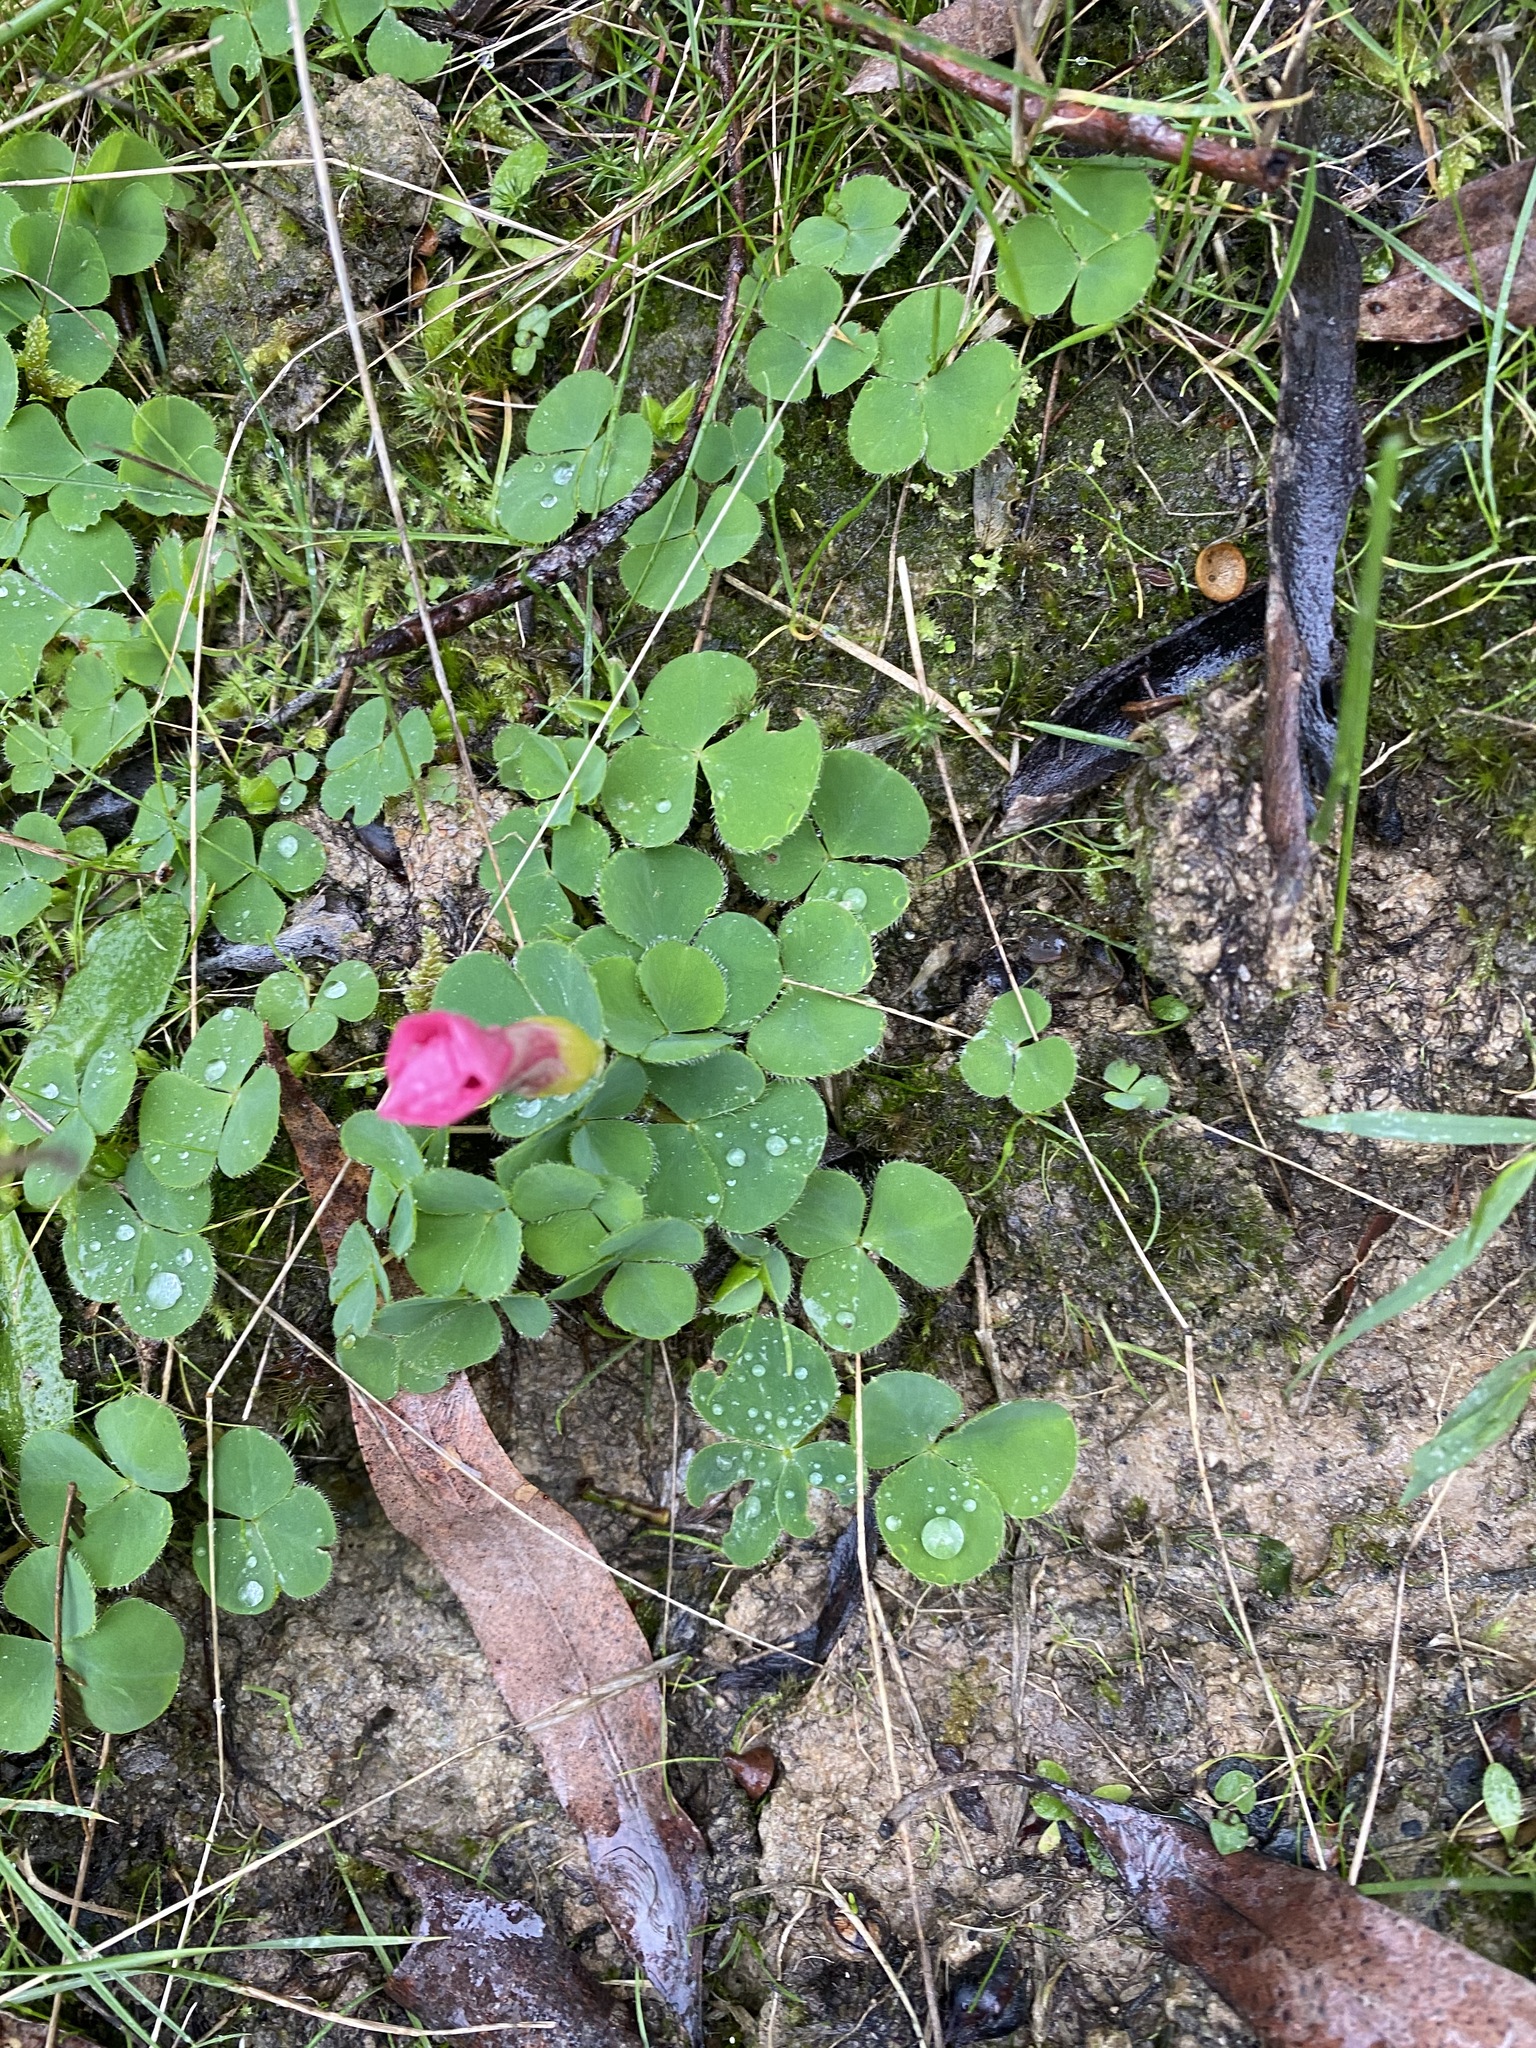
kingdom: Plantae
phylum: Tracheophyta
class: Magnoliopsida
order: Oxalidales
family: Oxalidaceae
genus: Oxalis
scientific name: Oxalis purpurea
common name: Purple woodsorrel
